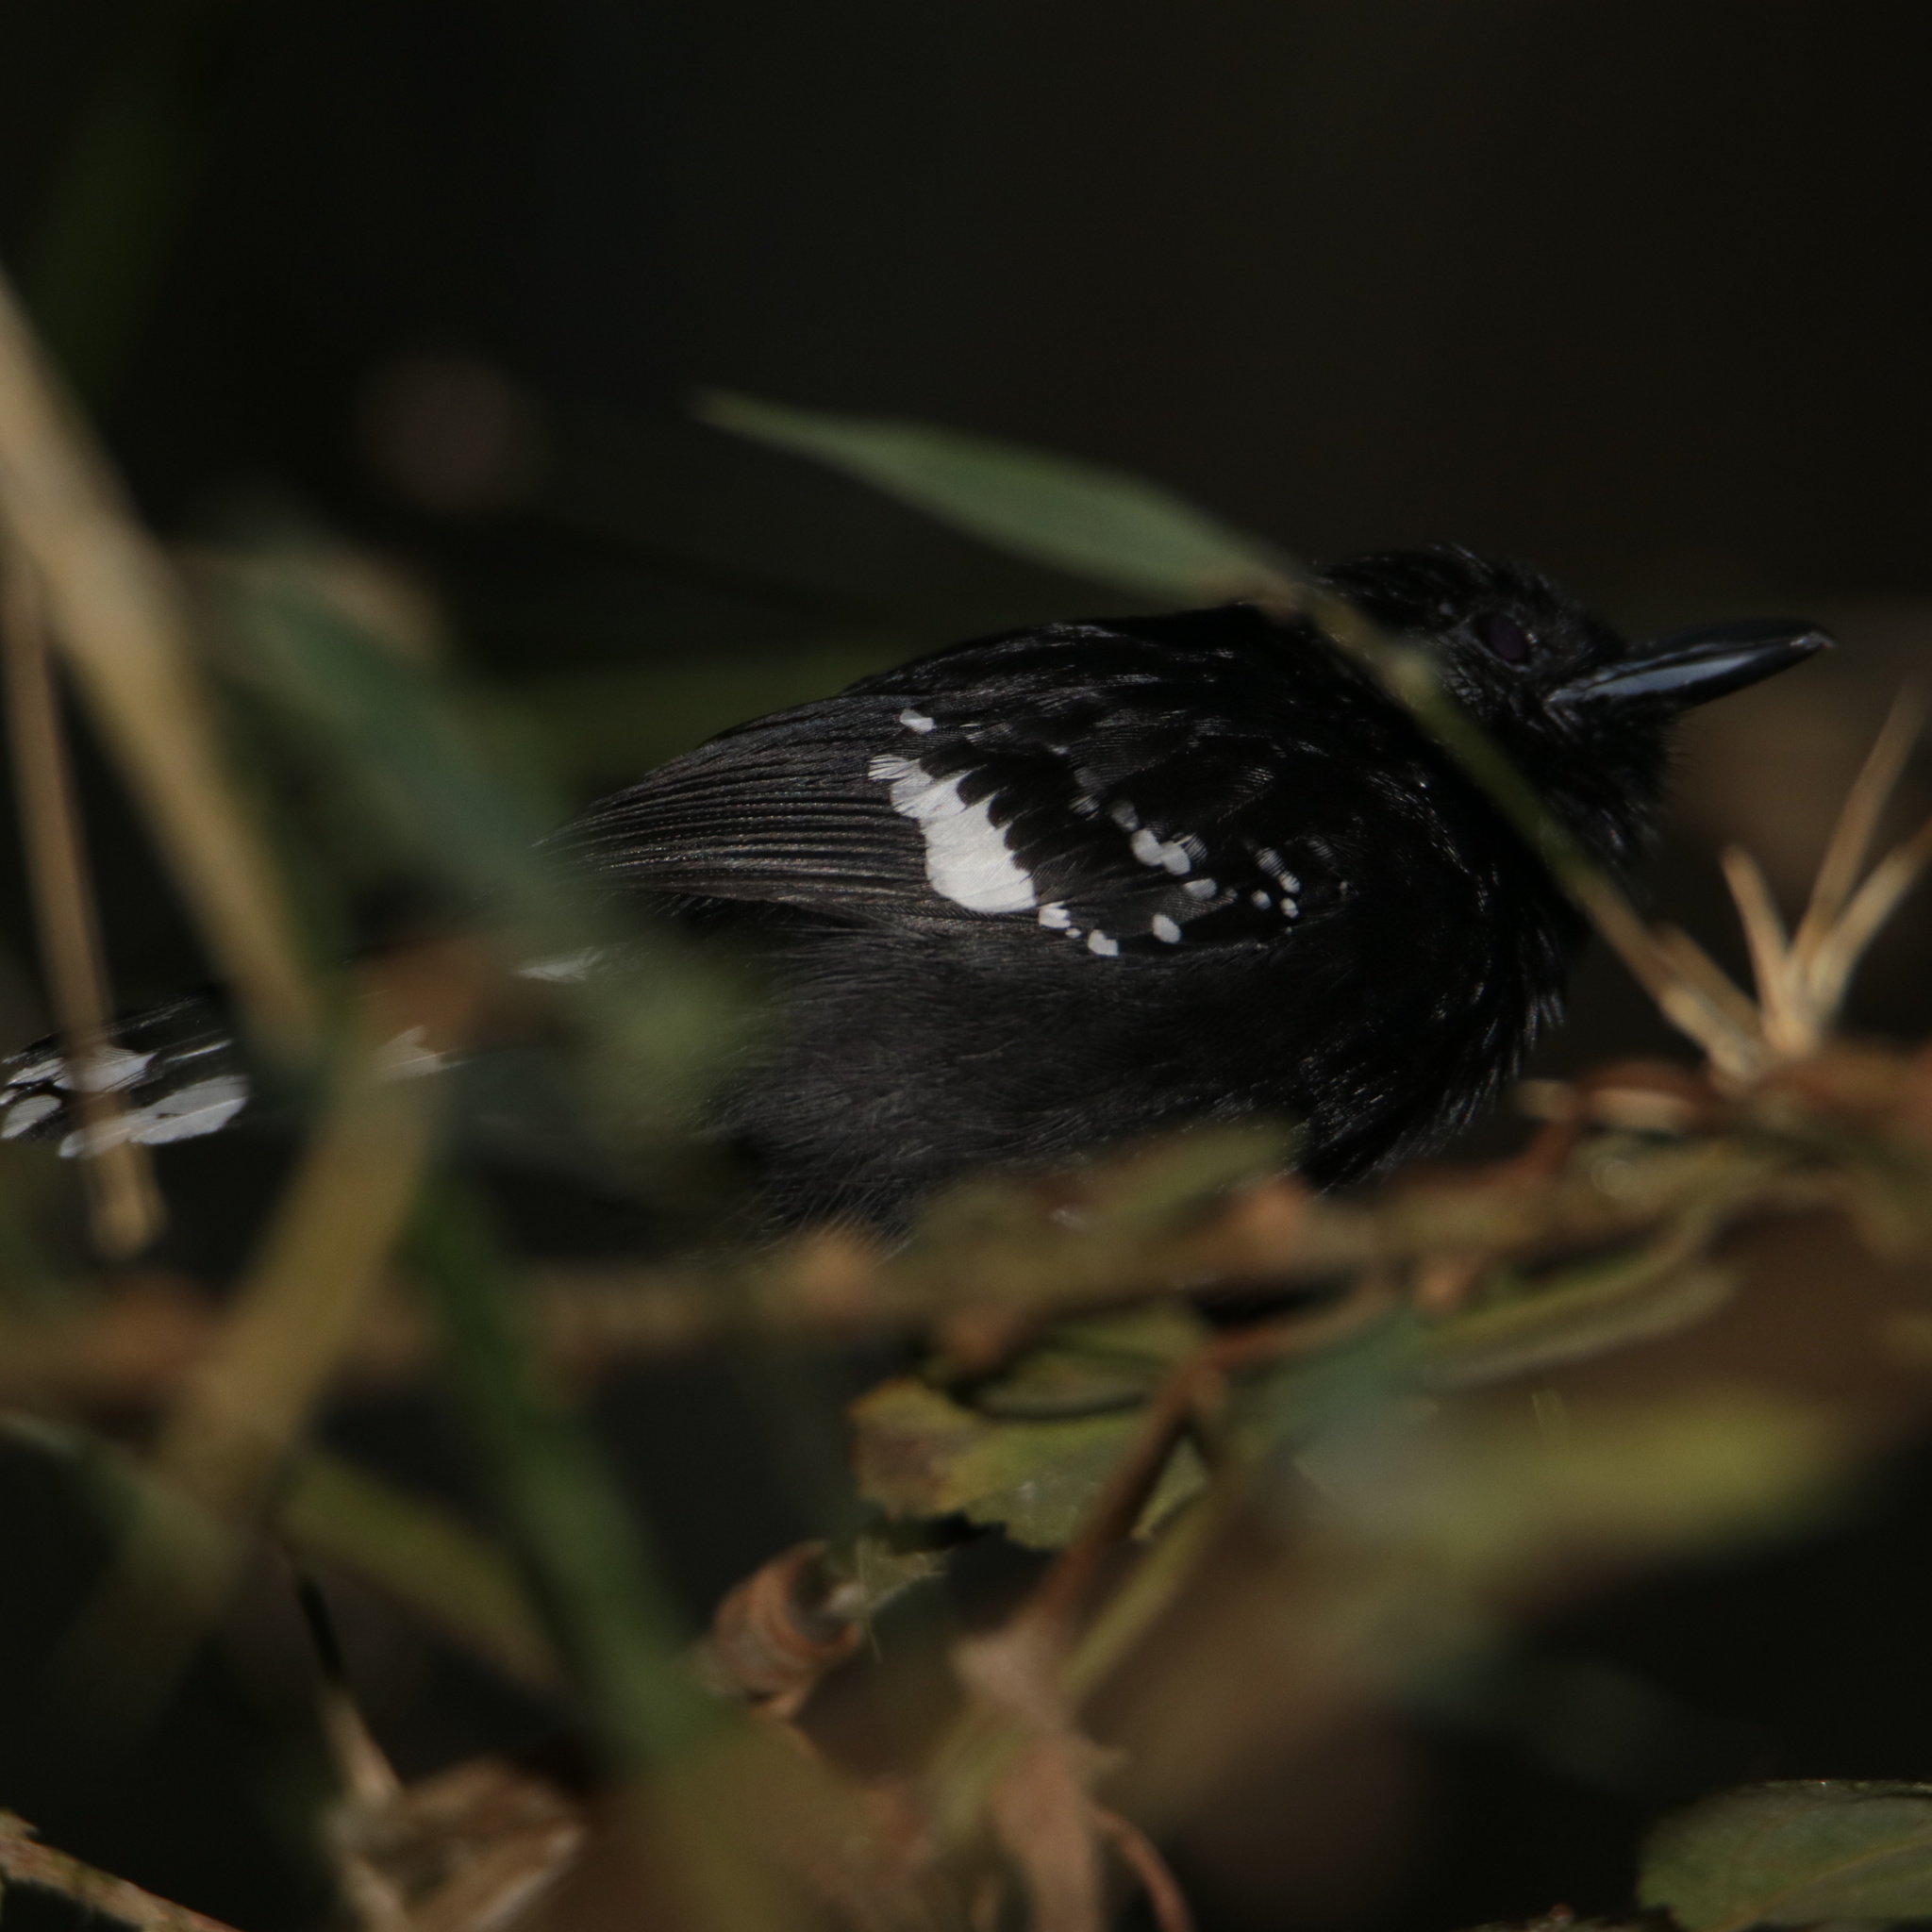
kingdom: Animalia
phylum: Chordata
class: Aves
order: Passeriformes
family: Thamnophilidae
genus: Microrhopias
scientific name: Microrhopias quixensis
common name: Dot-winged antwren
